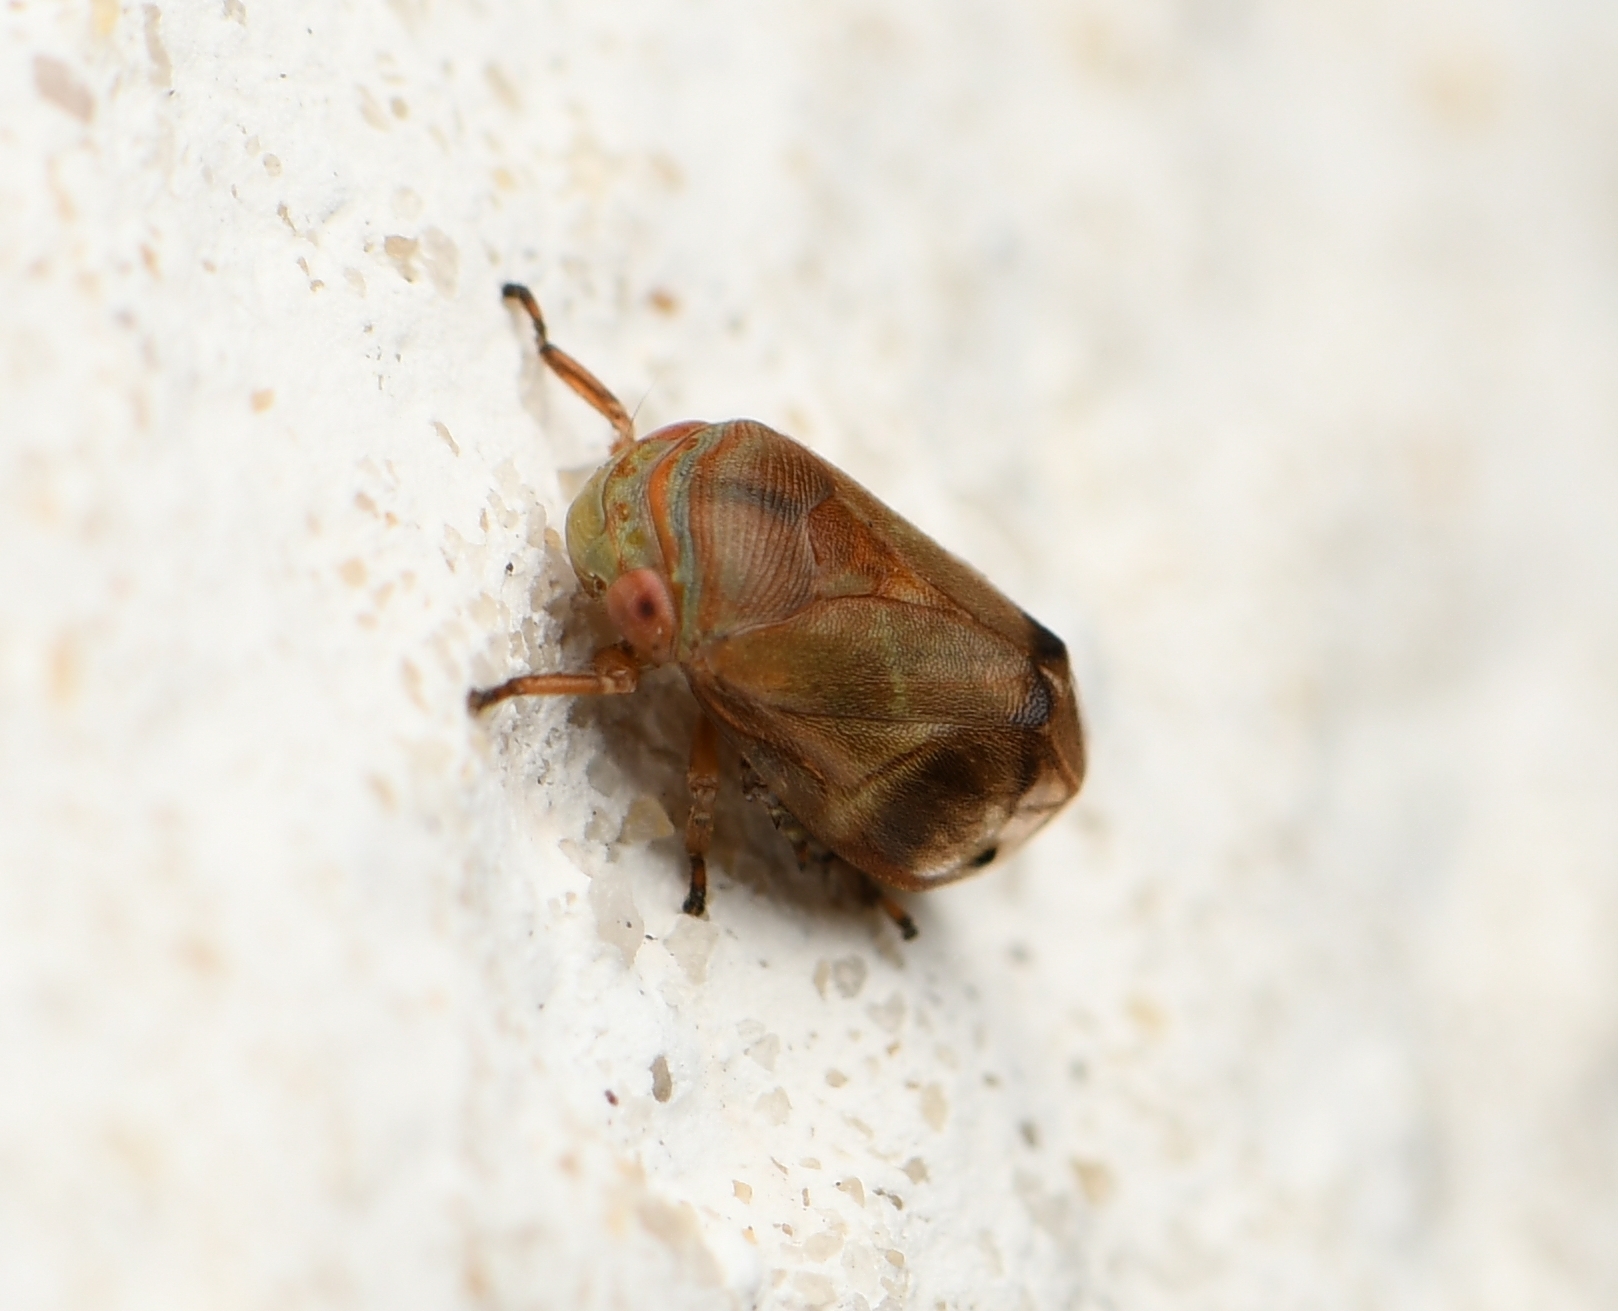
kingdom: Animalia
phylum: Arthropoda
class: Insecta
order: Hemiptera
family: Clastopteridae
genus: Clastoptera
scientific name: Clastoptera querci
